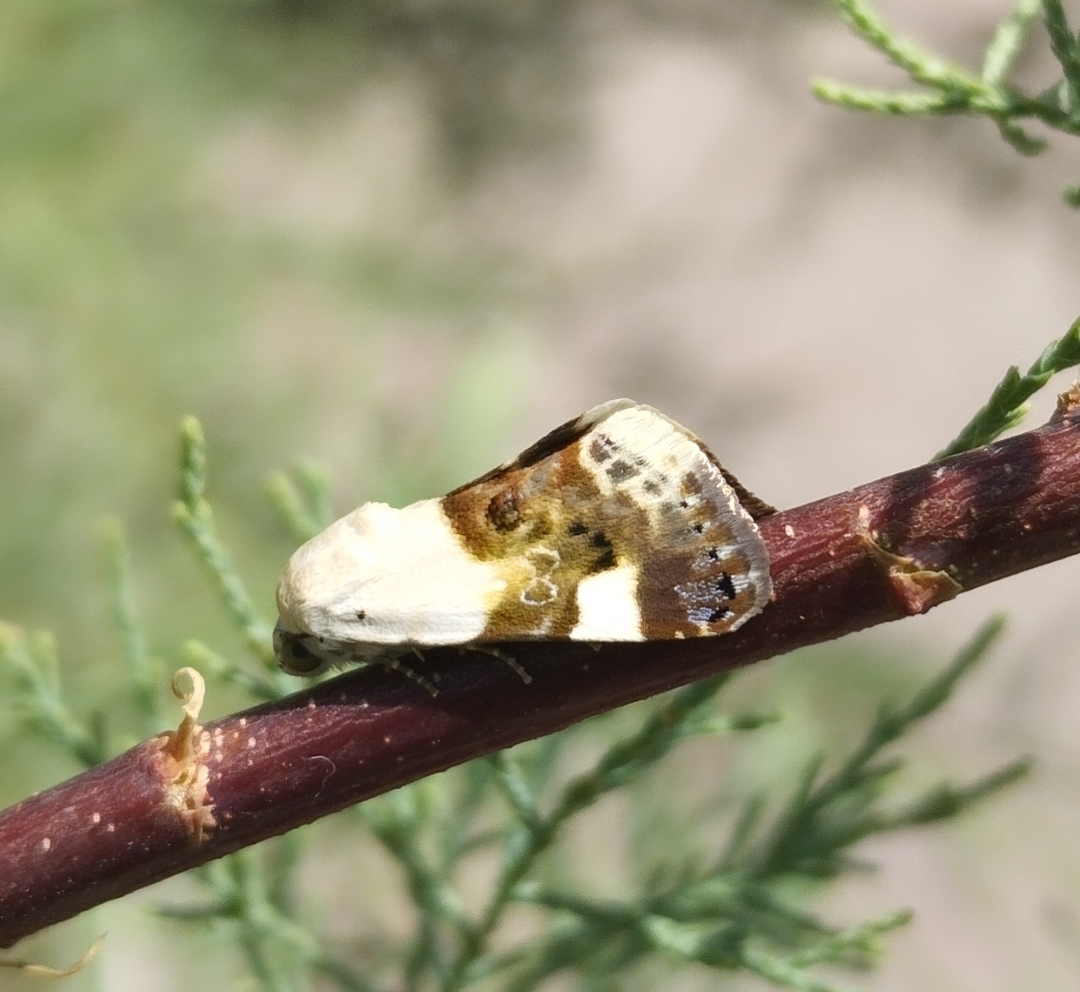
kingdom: Animalia
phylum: Arthropoda
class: Insecta
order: Lepidoptera
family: Noctuidae
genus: Acontia
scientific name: Acontia lucida
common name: Pale shoulder
